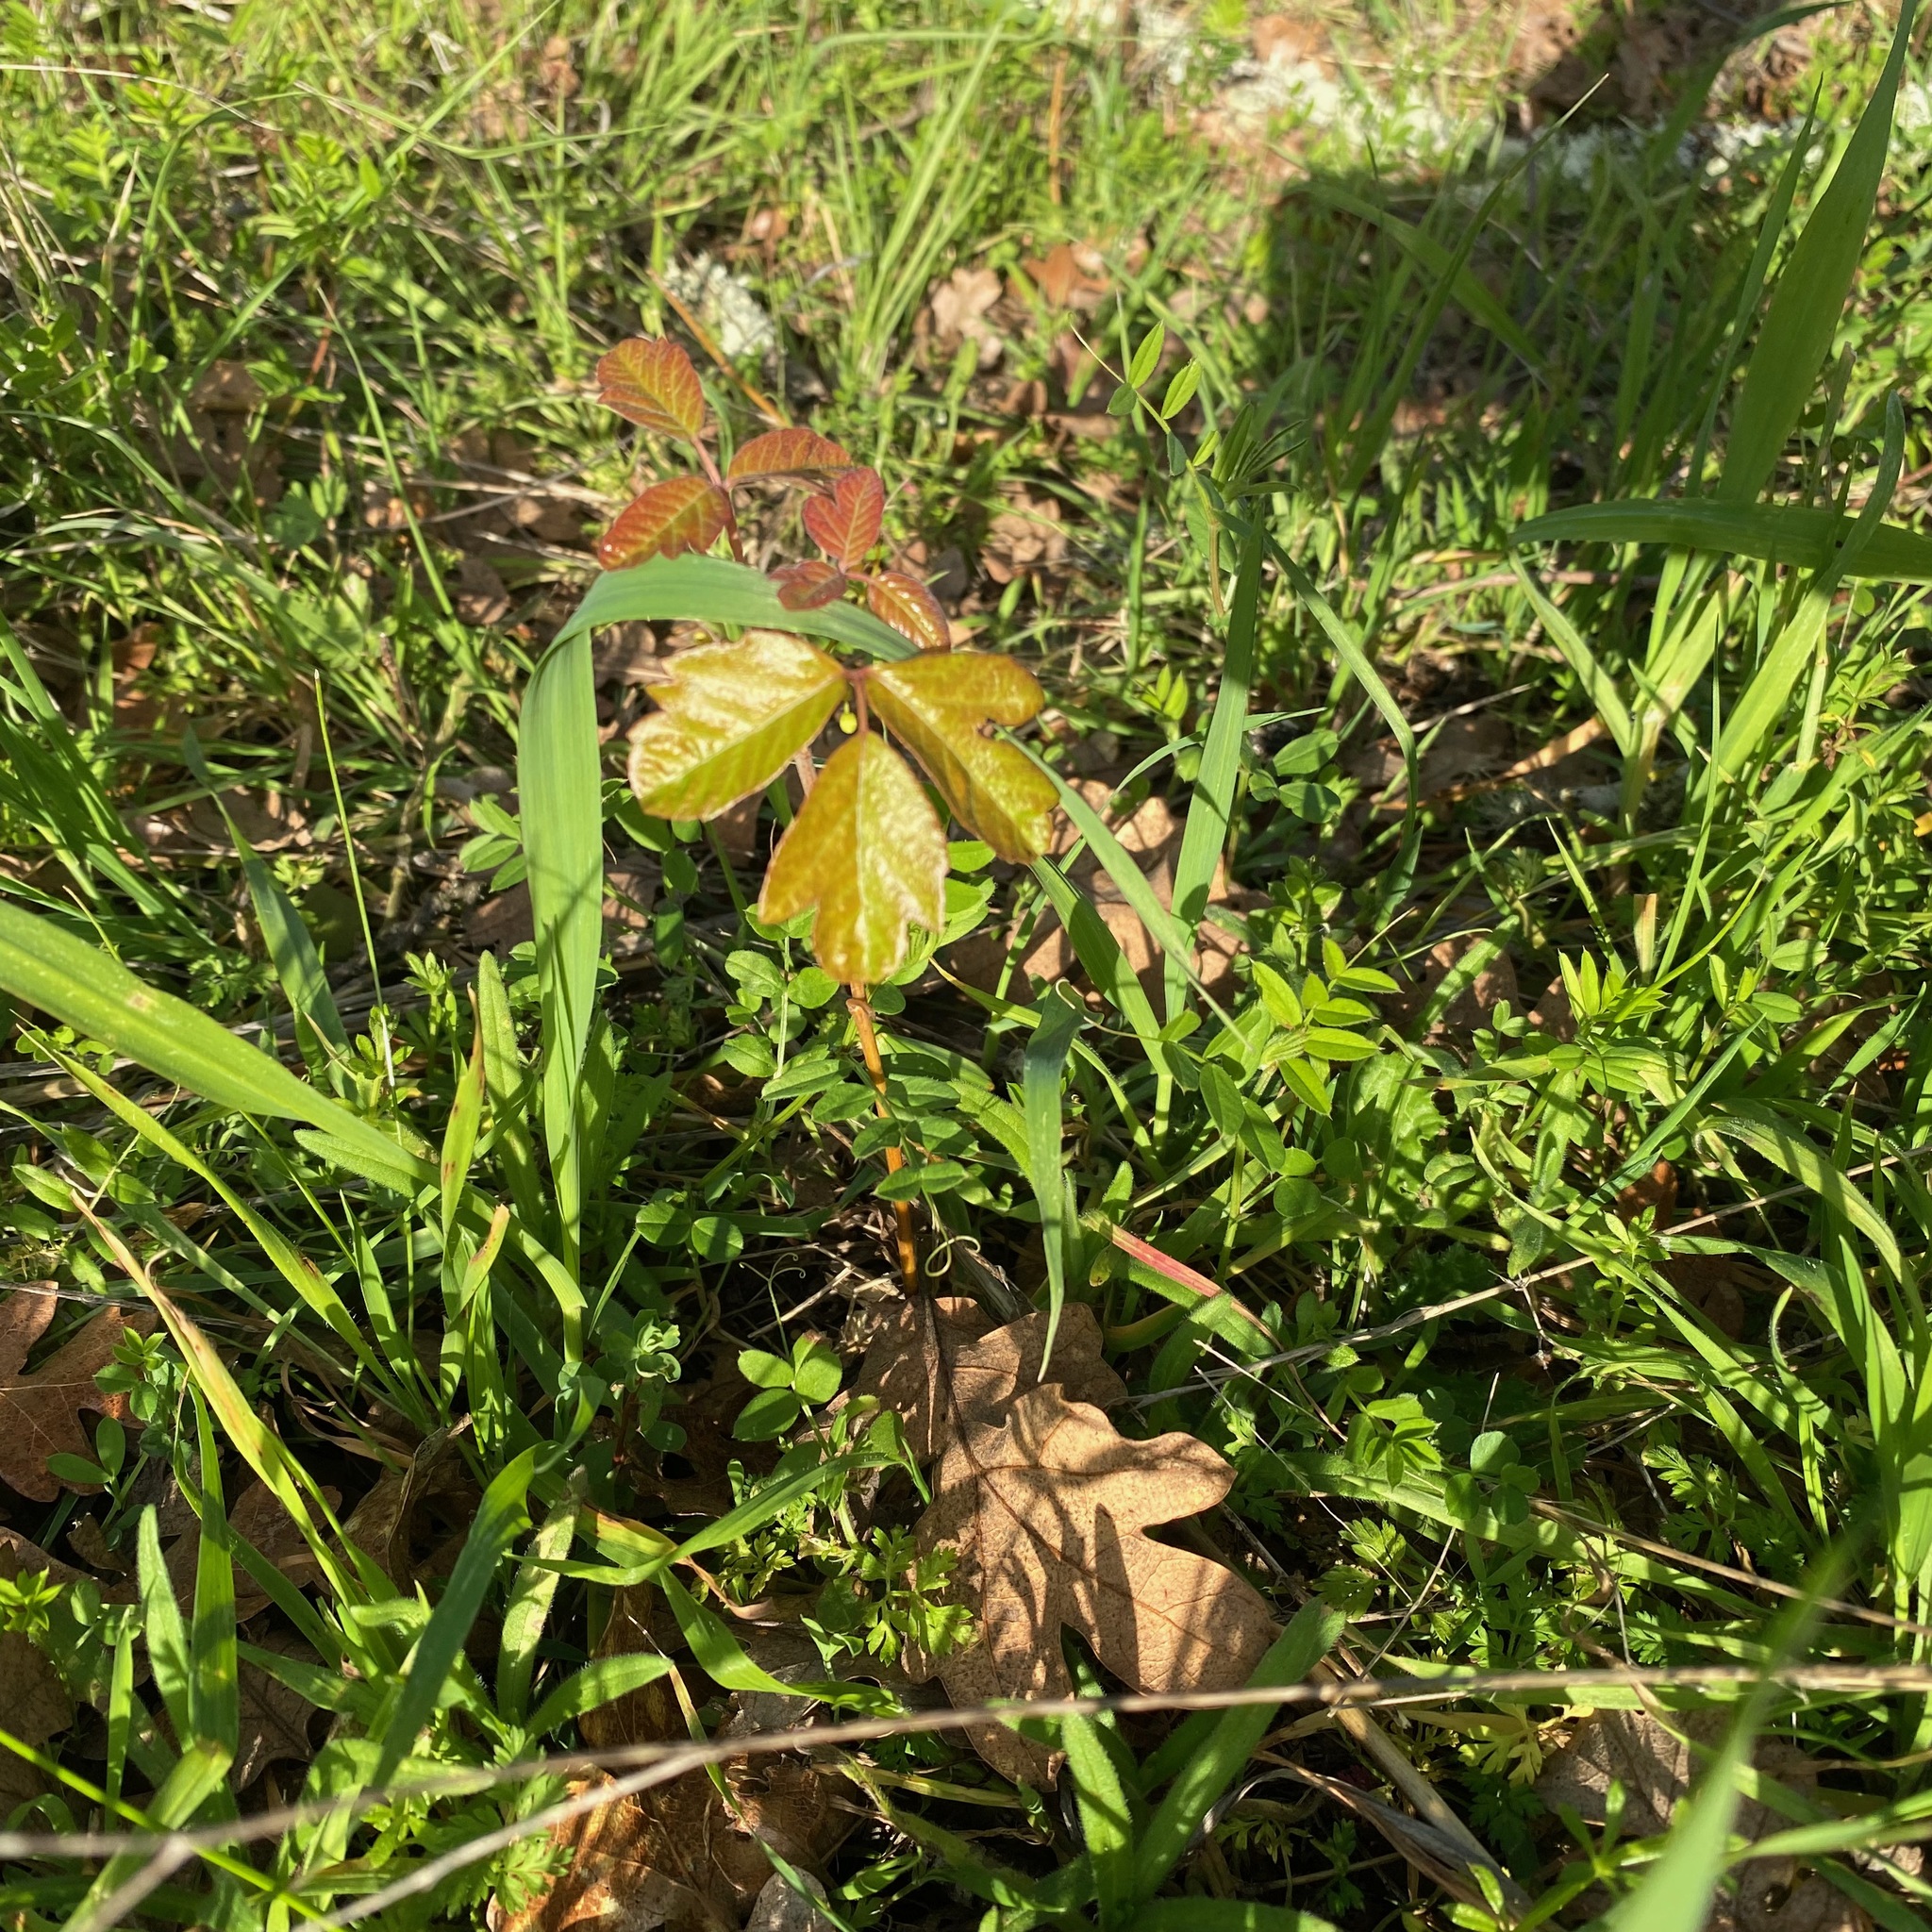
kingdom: Plantae
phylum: Tracheophyta
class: Magnoliopsida
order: Sapindales
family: Anacardiaceae
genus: Toxicodendron
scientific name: Toxicodendron diversilobum
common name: Pacific poison-oak
